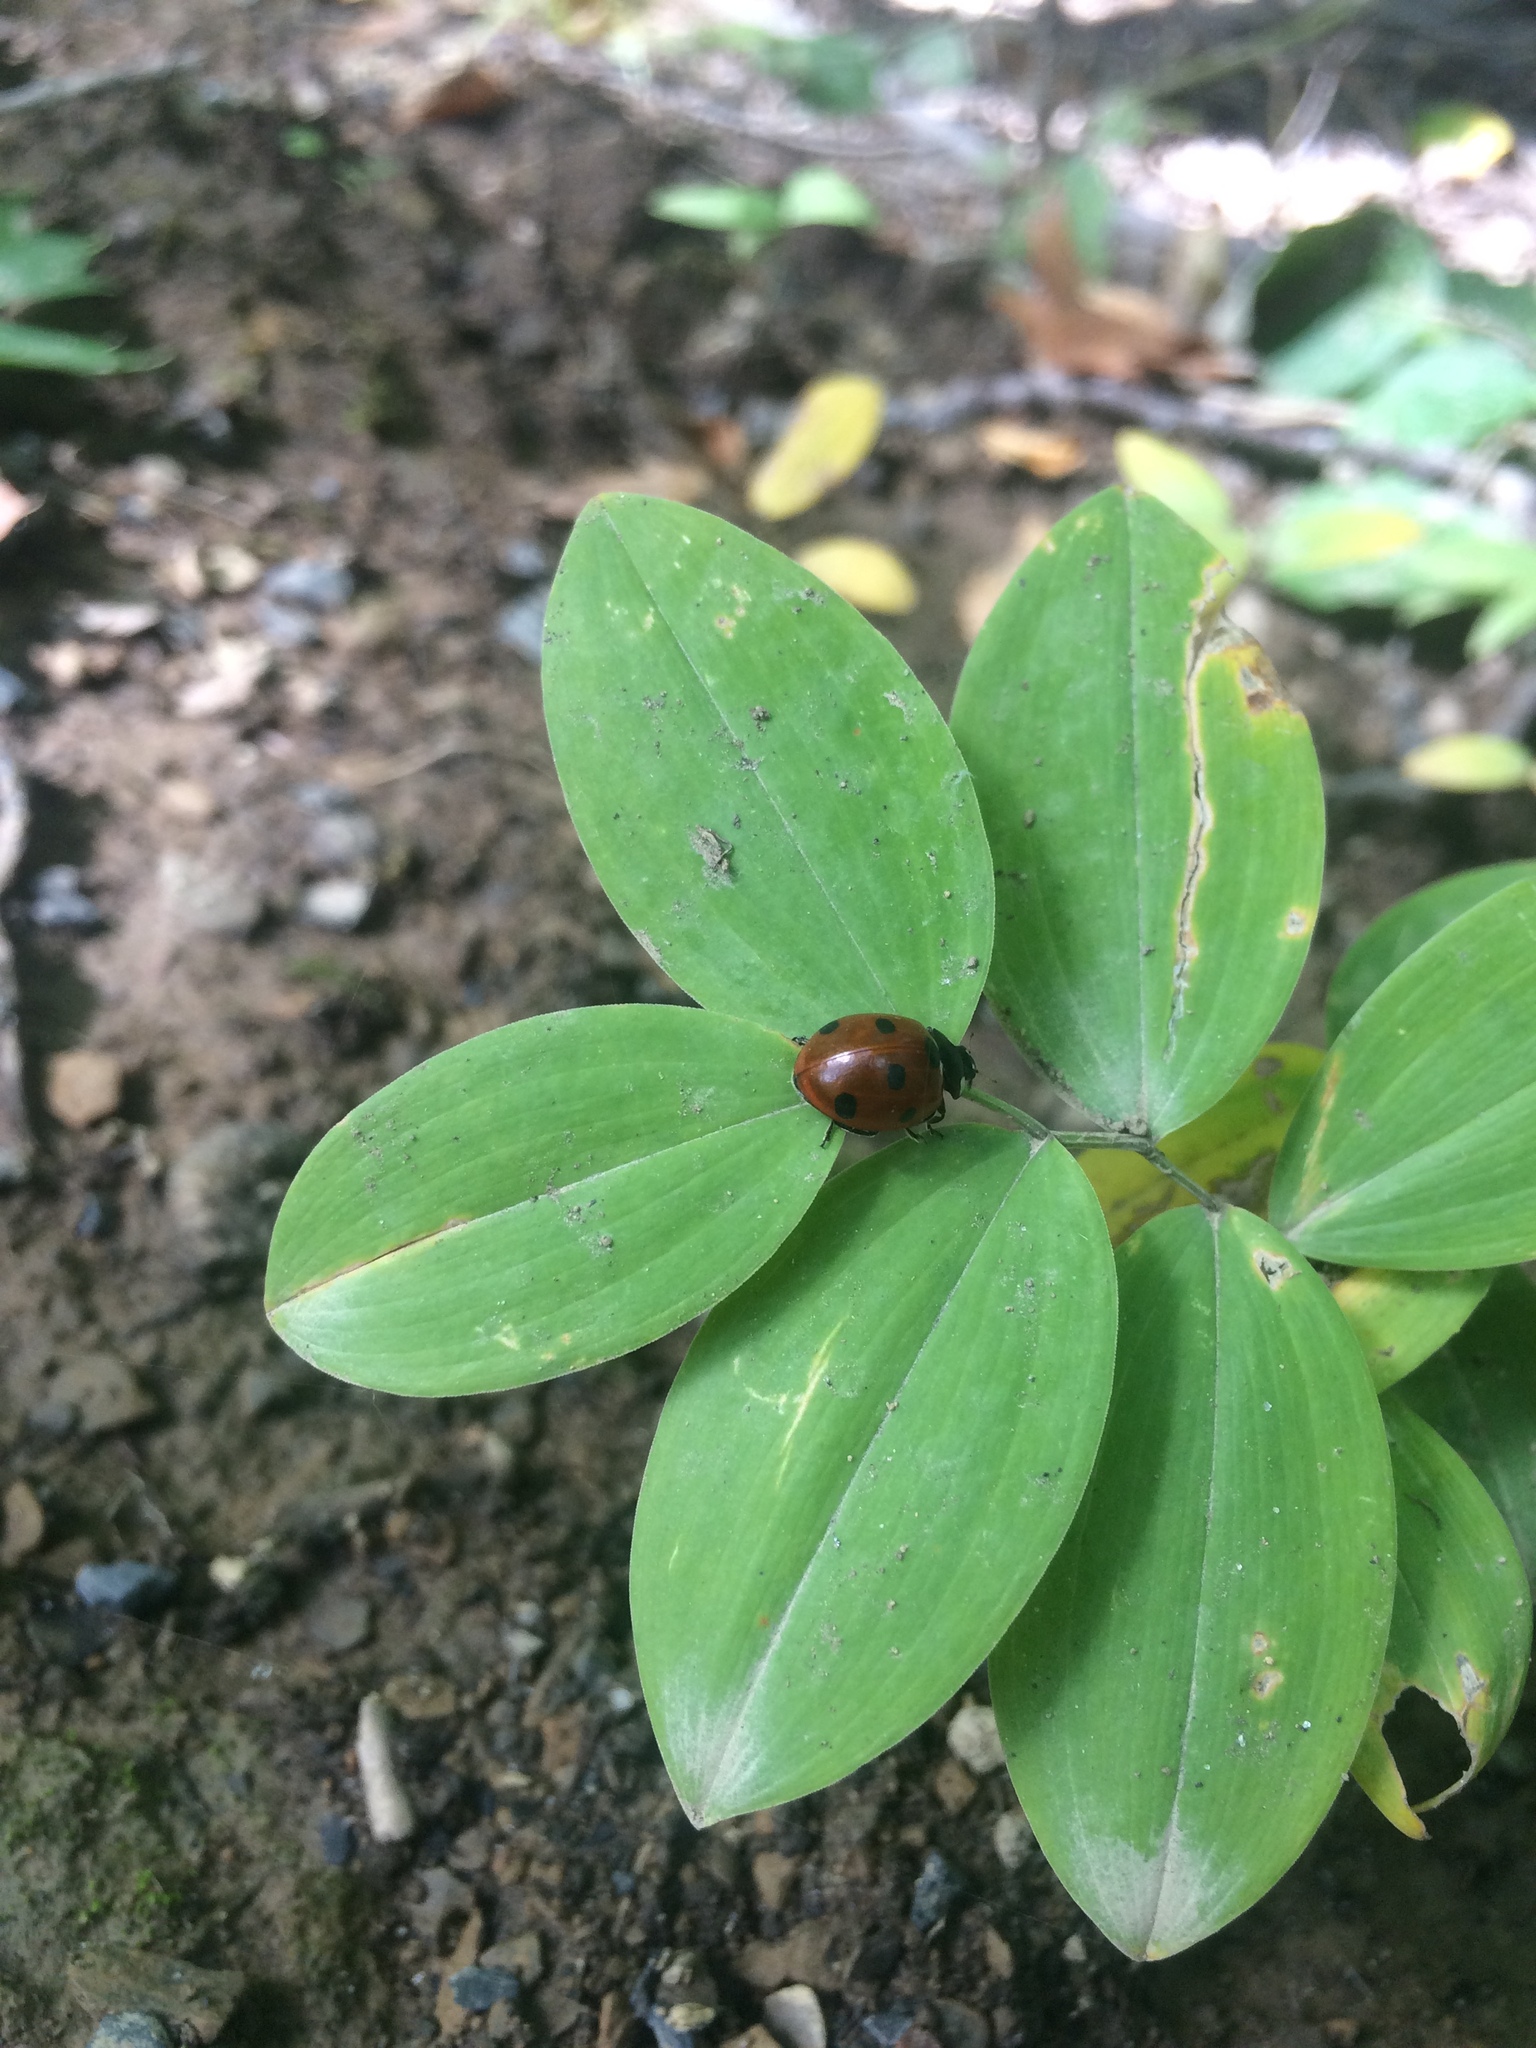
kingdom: Animalia
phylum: Arthropoda
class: Insecta
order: Coleoptera
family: Coccinellidae
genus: Coccinella
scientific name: Coccinella septempunctata
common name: Sevenspotted lady beetle
